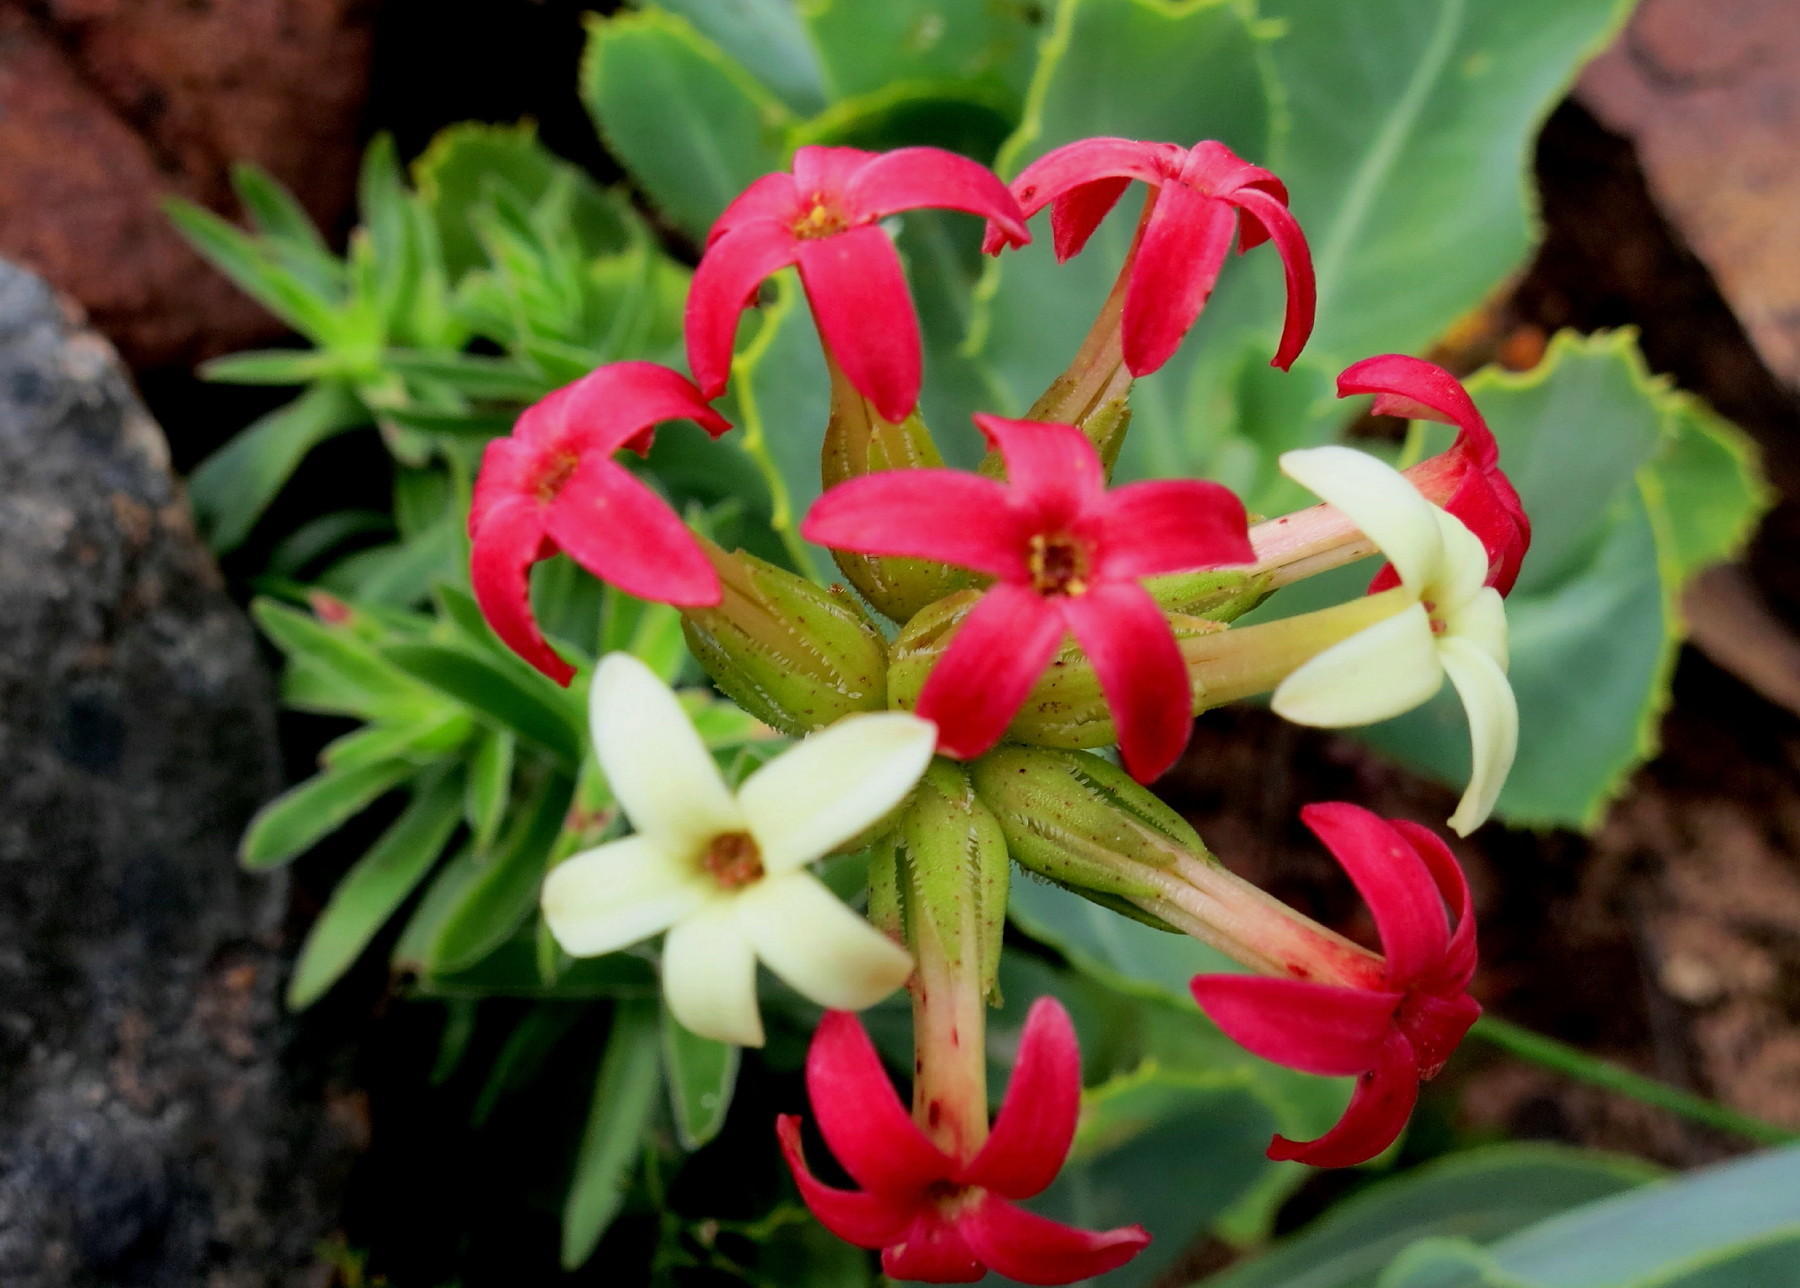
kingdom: Plantae
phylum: Tracheophyta
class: Magnoliopsida
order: Saxifragales
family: Crassulaceae
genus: Crassula
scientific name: Crassula fascicularis
